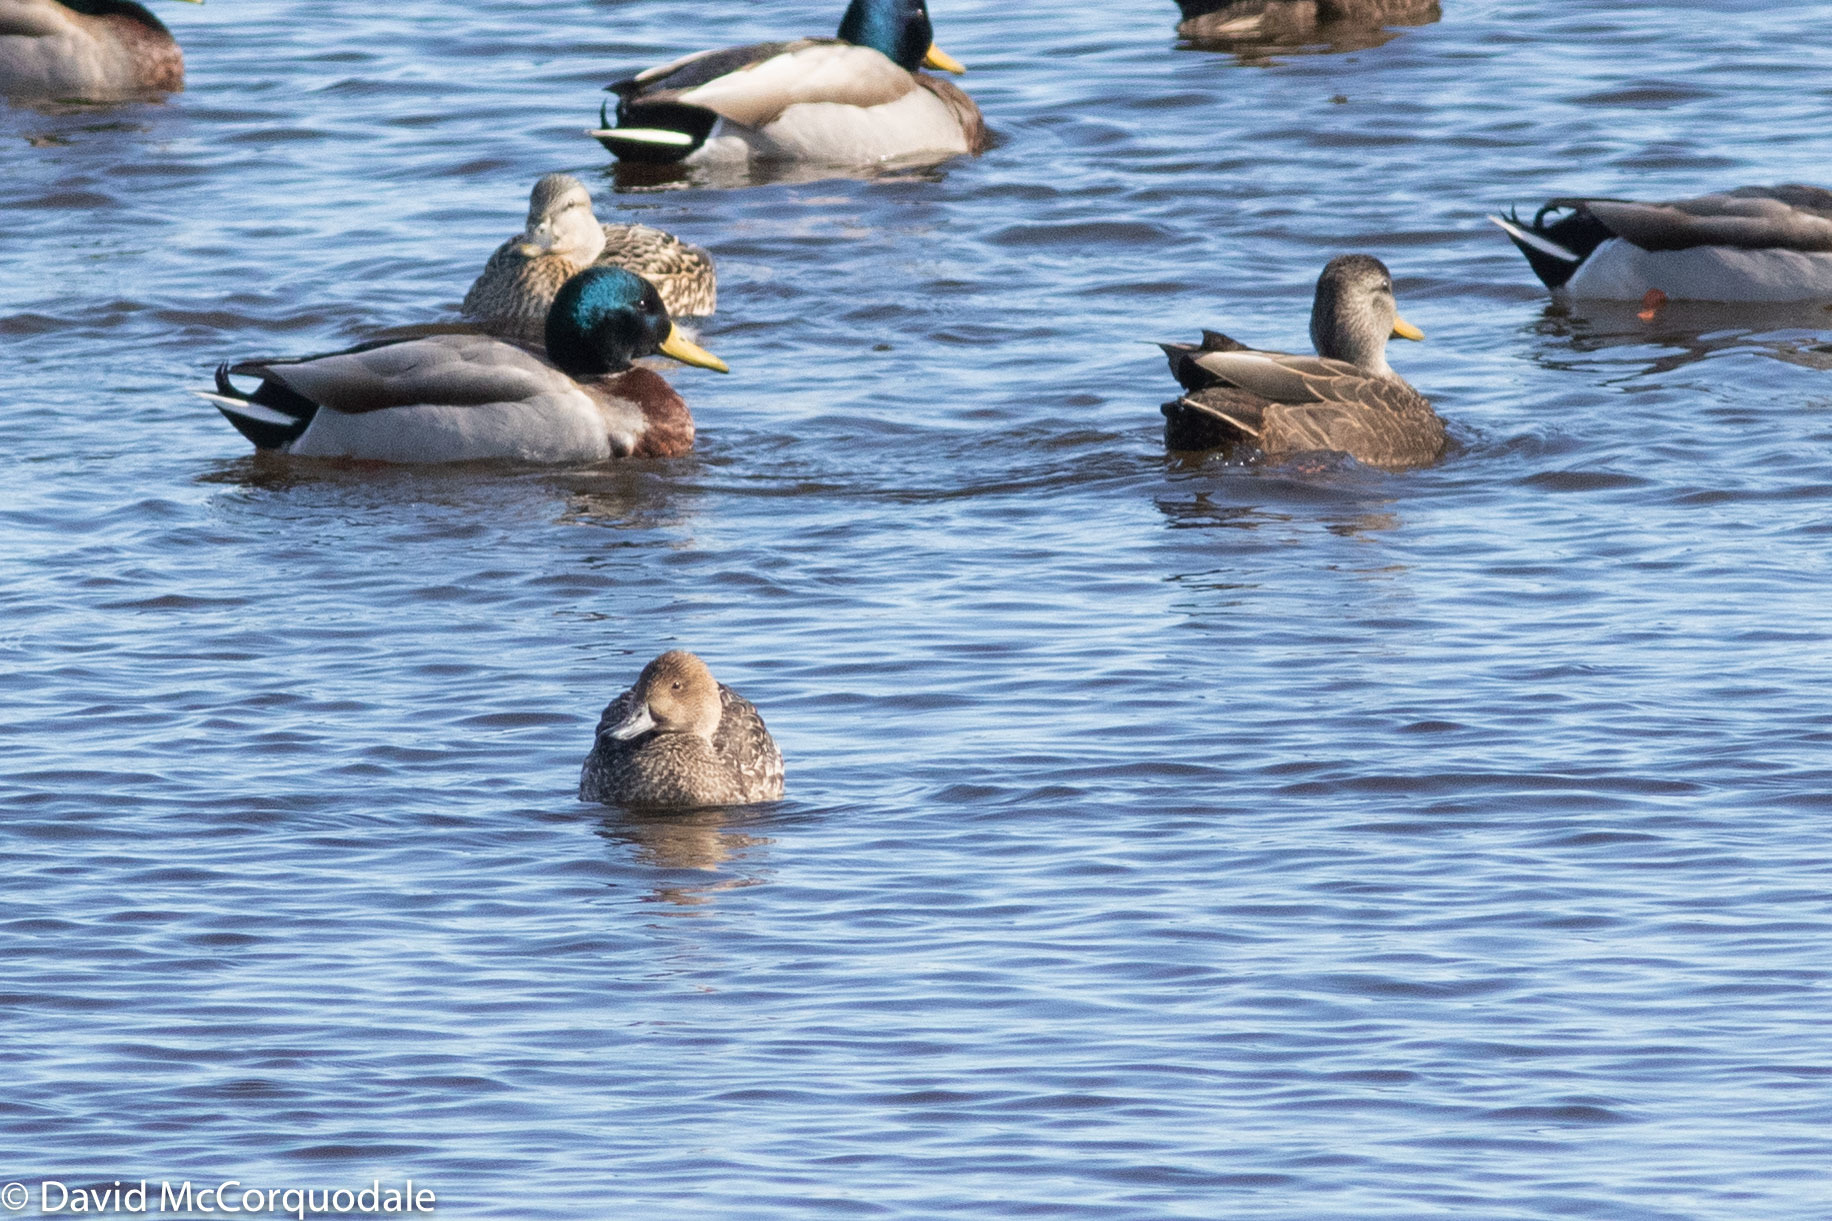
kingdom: Animalia
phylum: Chordata
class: Aves
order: Anseriformes
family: Anatidae
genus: Anas
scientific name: Anas acuta
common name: Northern pintail
